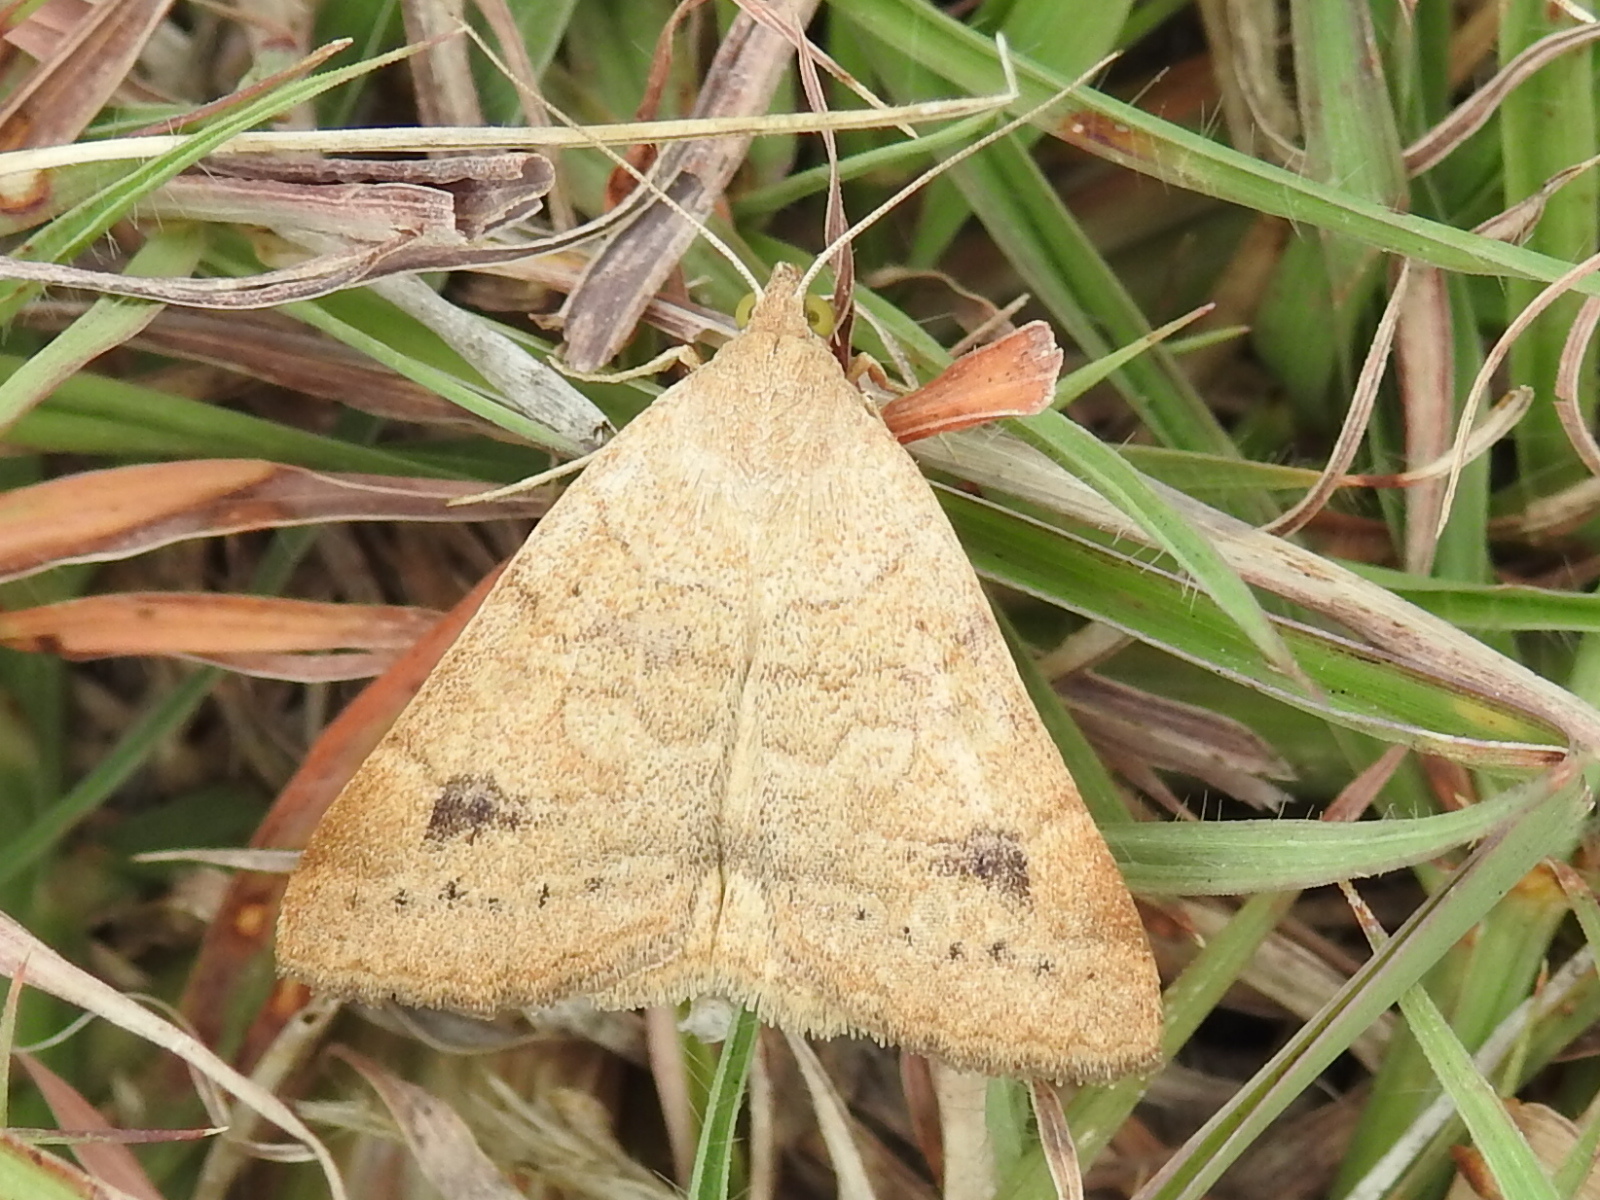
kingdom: Animalia
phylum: Arthropoda
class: Insecta
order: Lepidoptera
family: Erebidae
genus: Caenurgia
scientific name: Caenurgia chloropha
